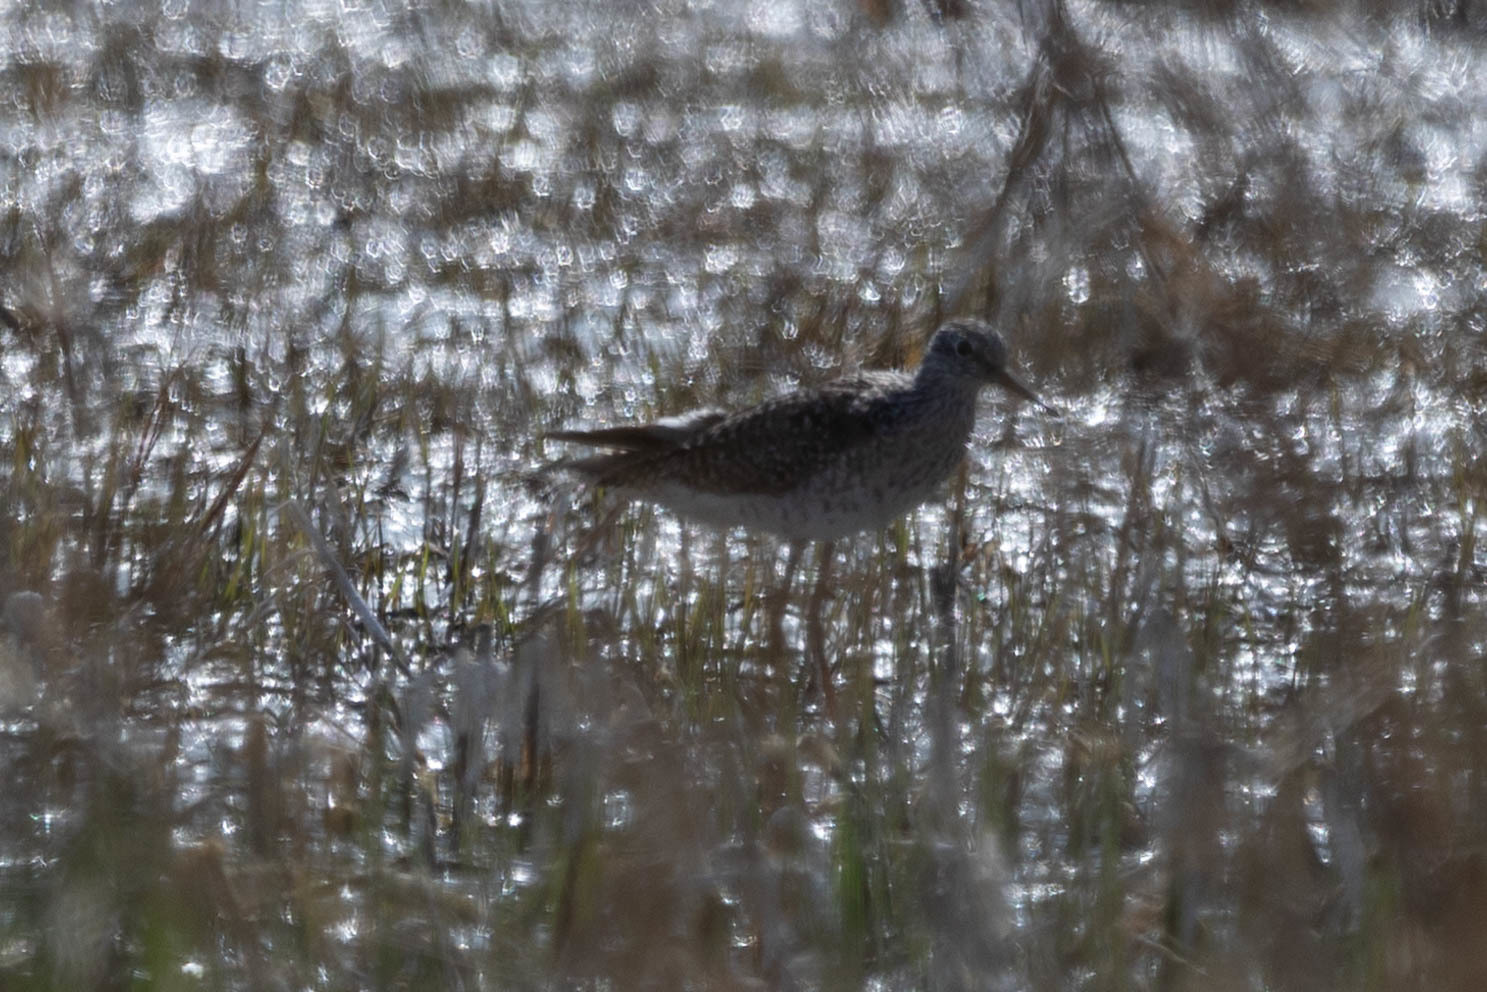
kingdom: Animalia
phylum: Chordata
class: Aves
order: Charadriiformes
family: Scolopacidae
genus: Tringa
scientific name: Tringa flavipes
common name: Lesser yellowlegs
